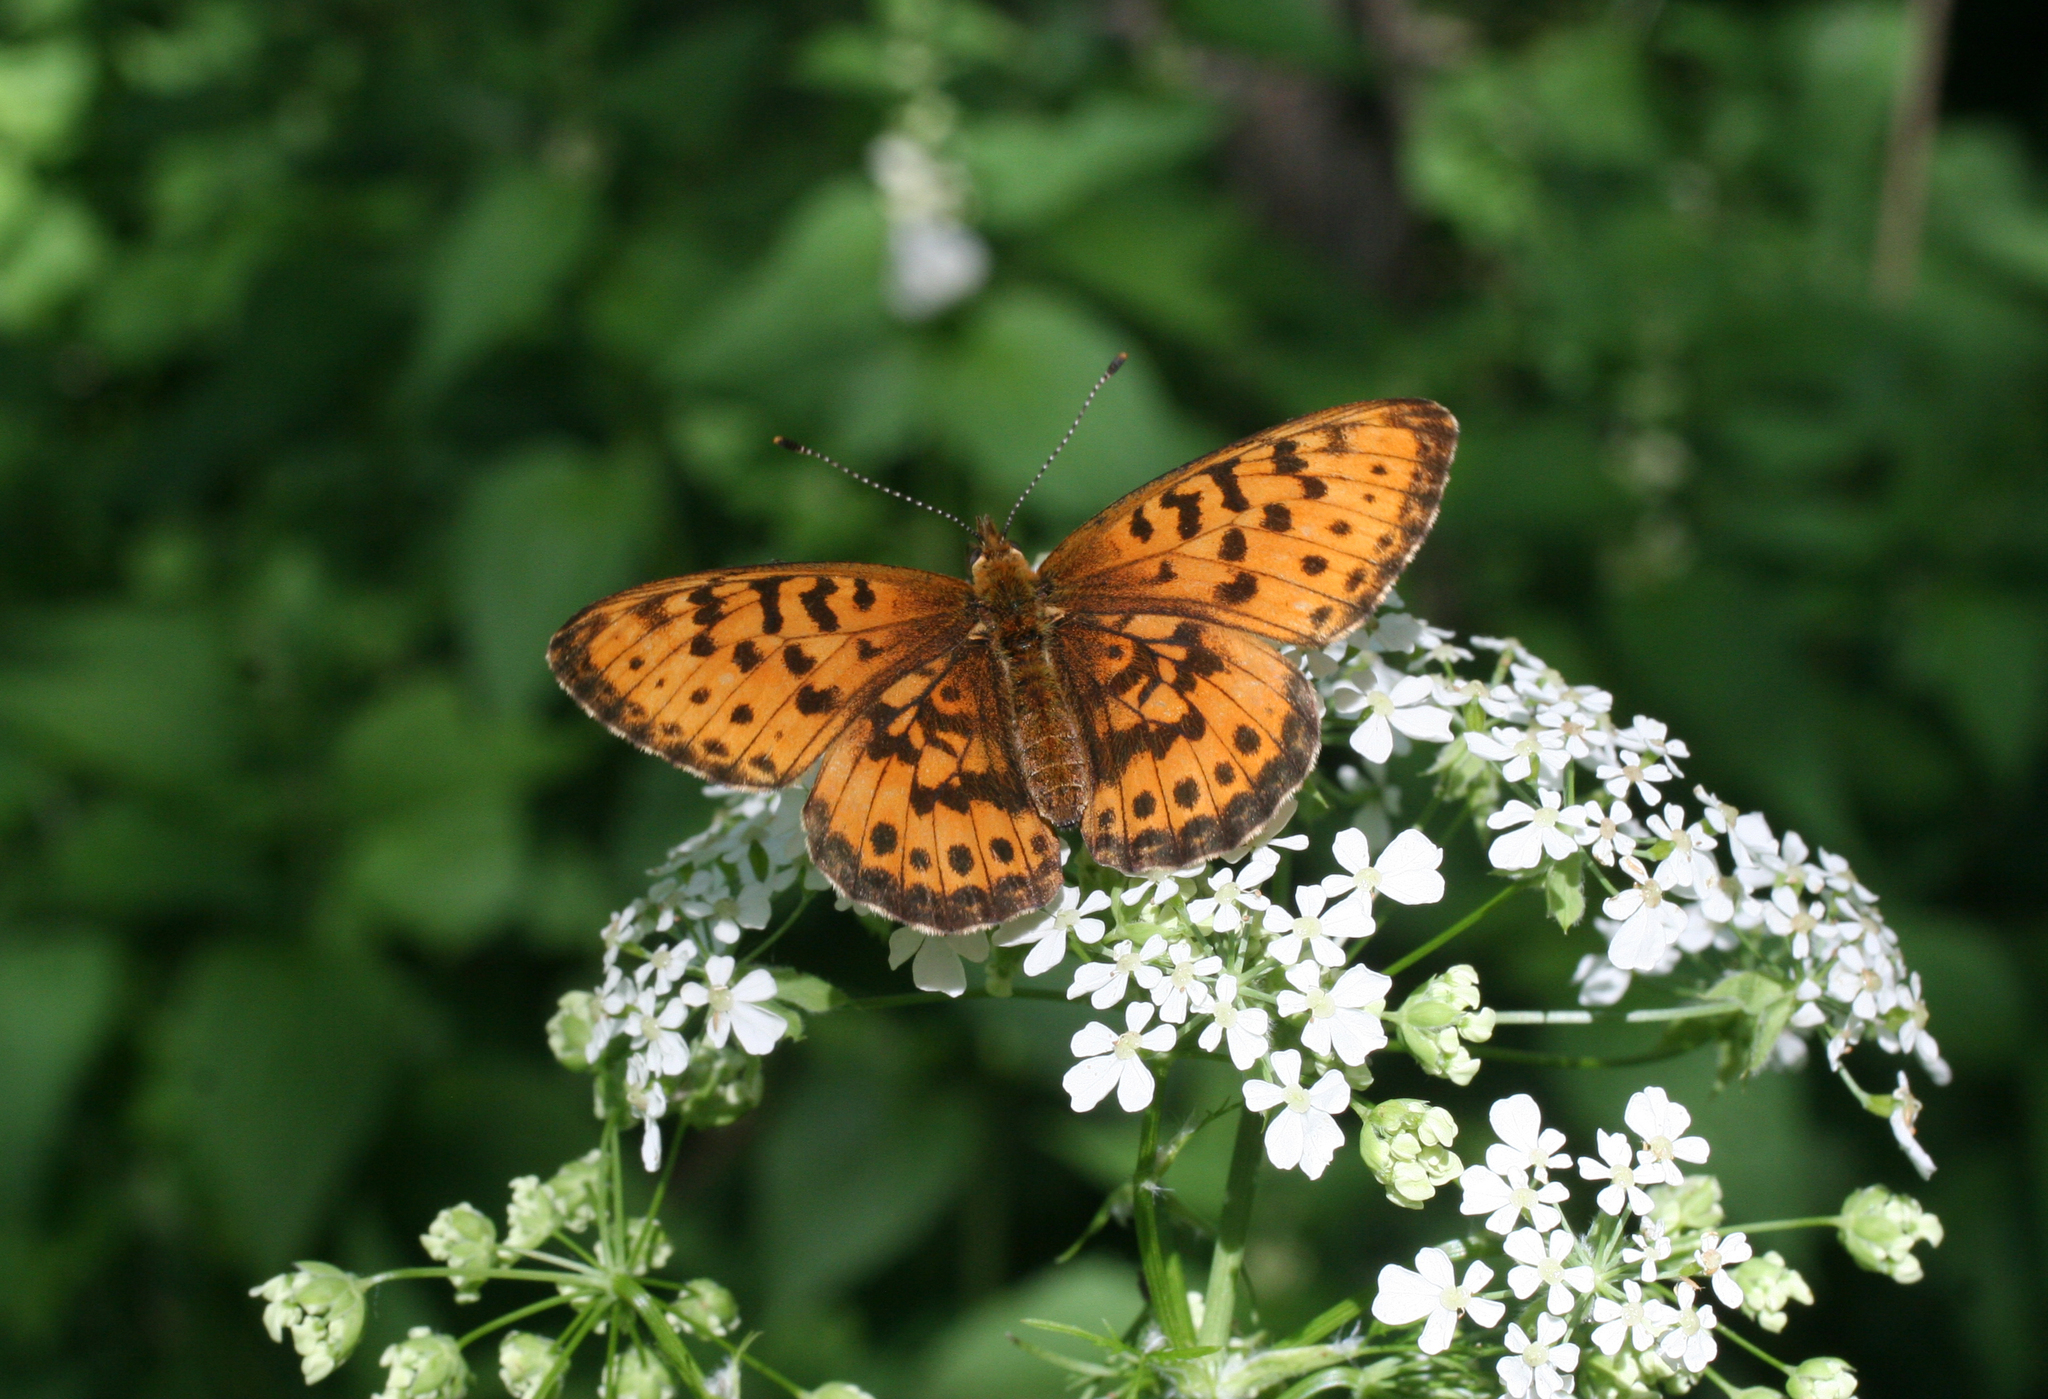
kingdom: Animalia
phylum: Arthropoda
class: Insecta
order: Lepidoptera
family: Nymphalidae
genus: Boloria
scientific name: Boloria thore
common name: Thor's fritillary
